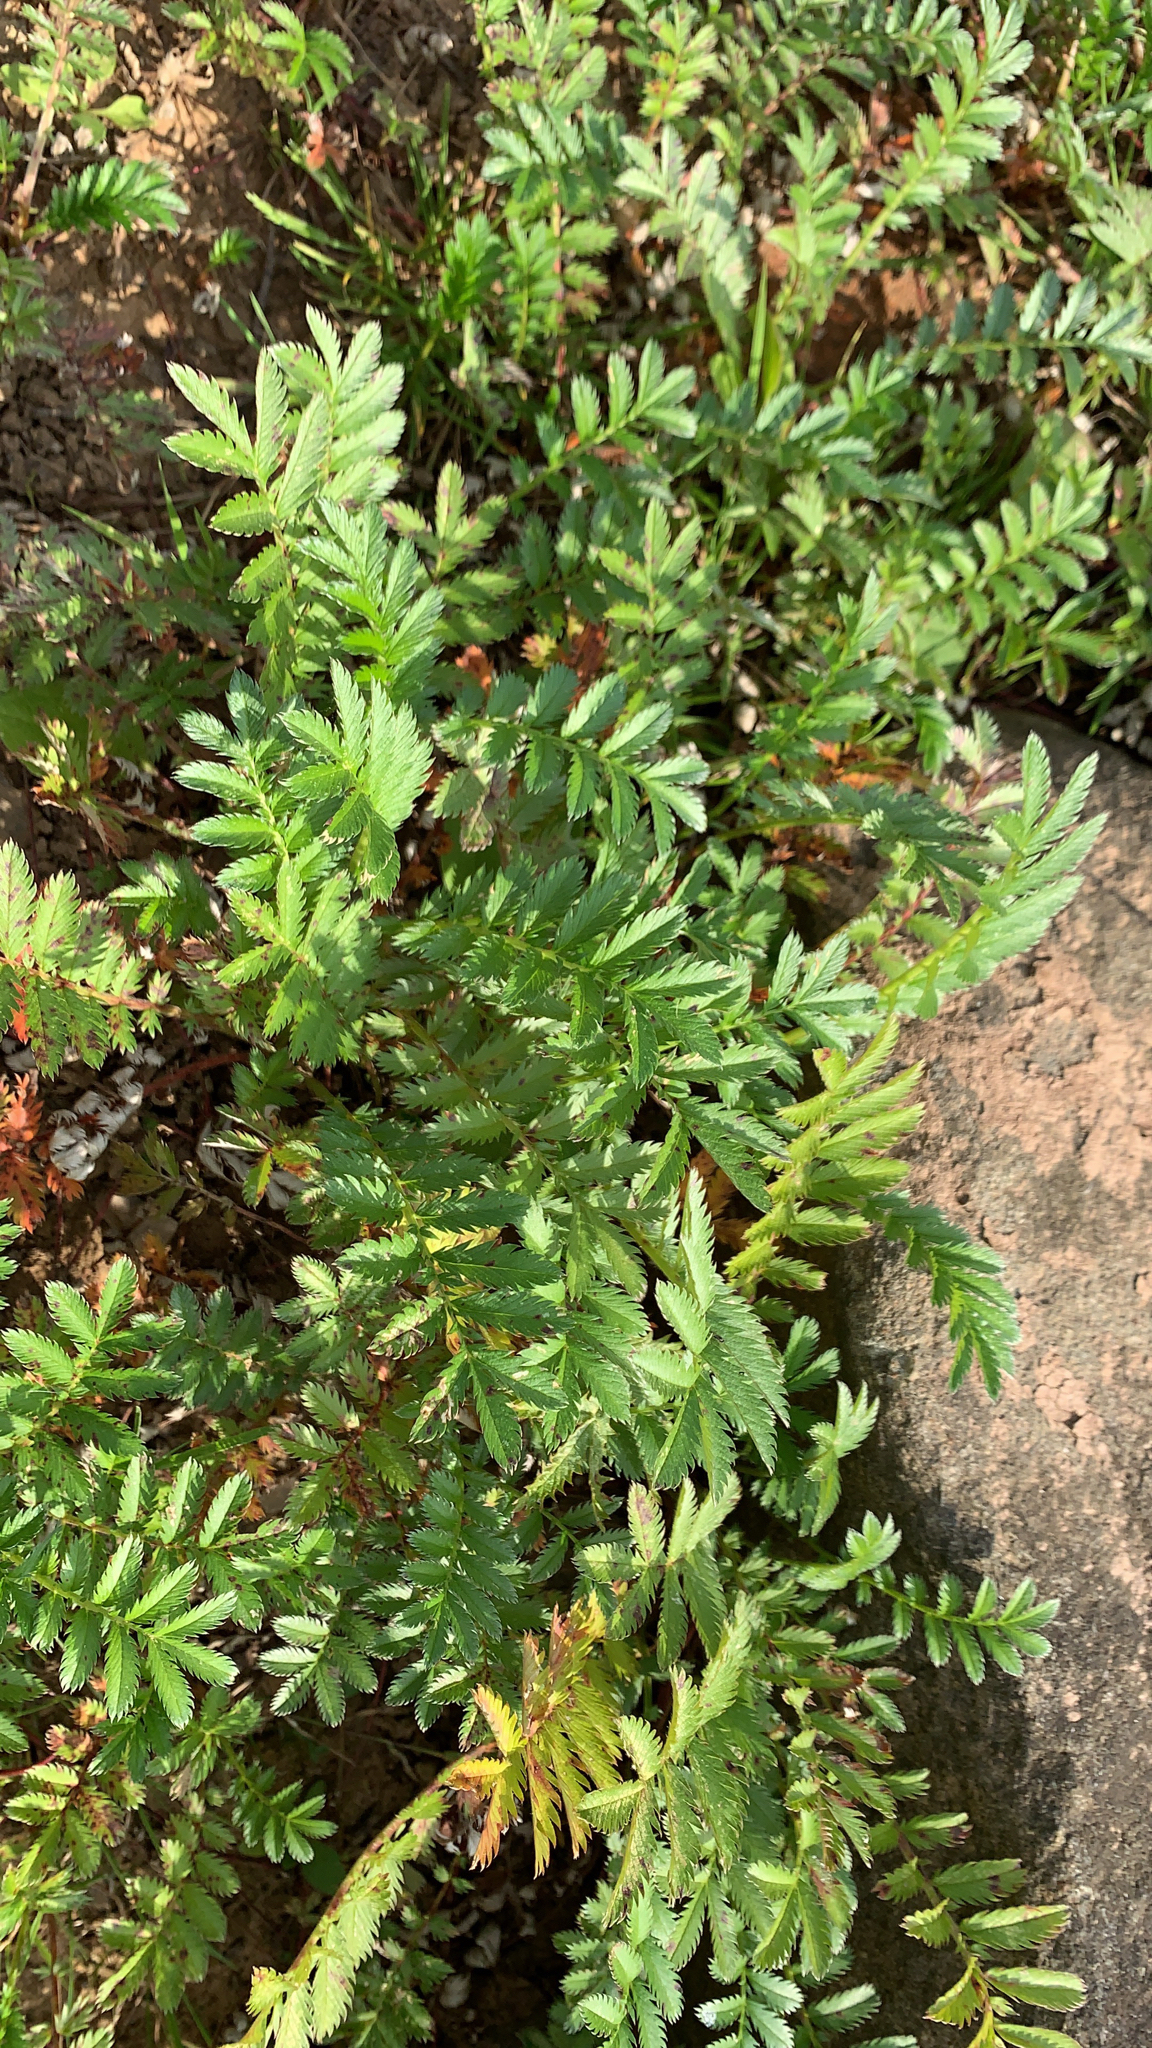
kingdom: Plantae
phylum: Tracheophyta
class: Magnoliopsida
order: Rosales
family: Rosaceae
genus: Argentina
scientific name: Argentina anserina
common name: Common silverweed
